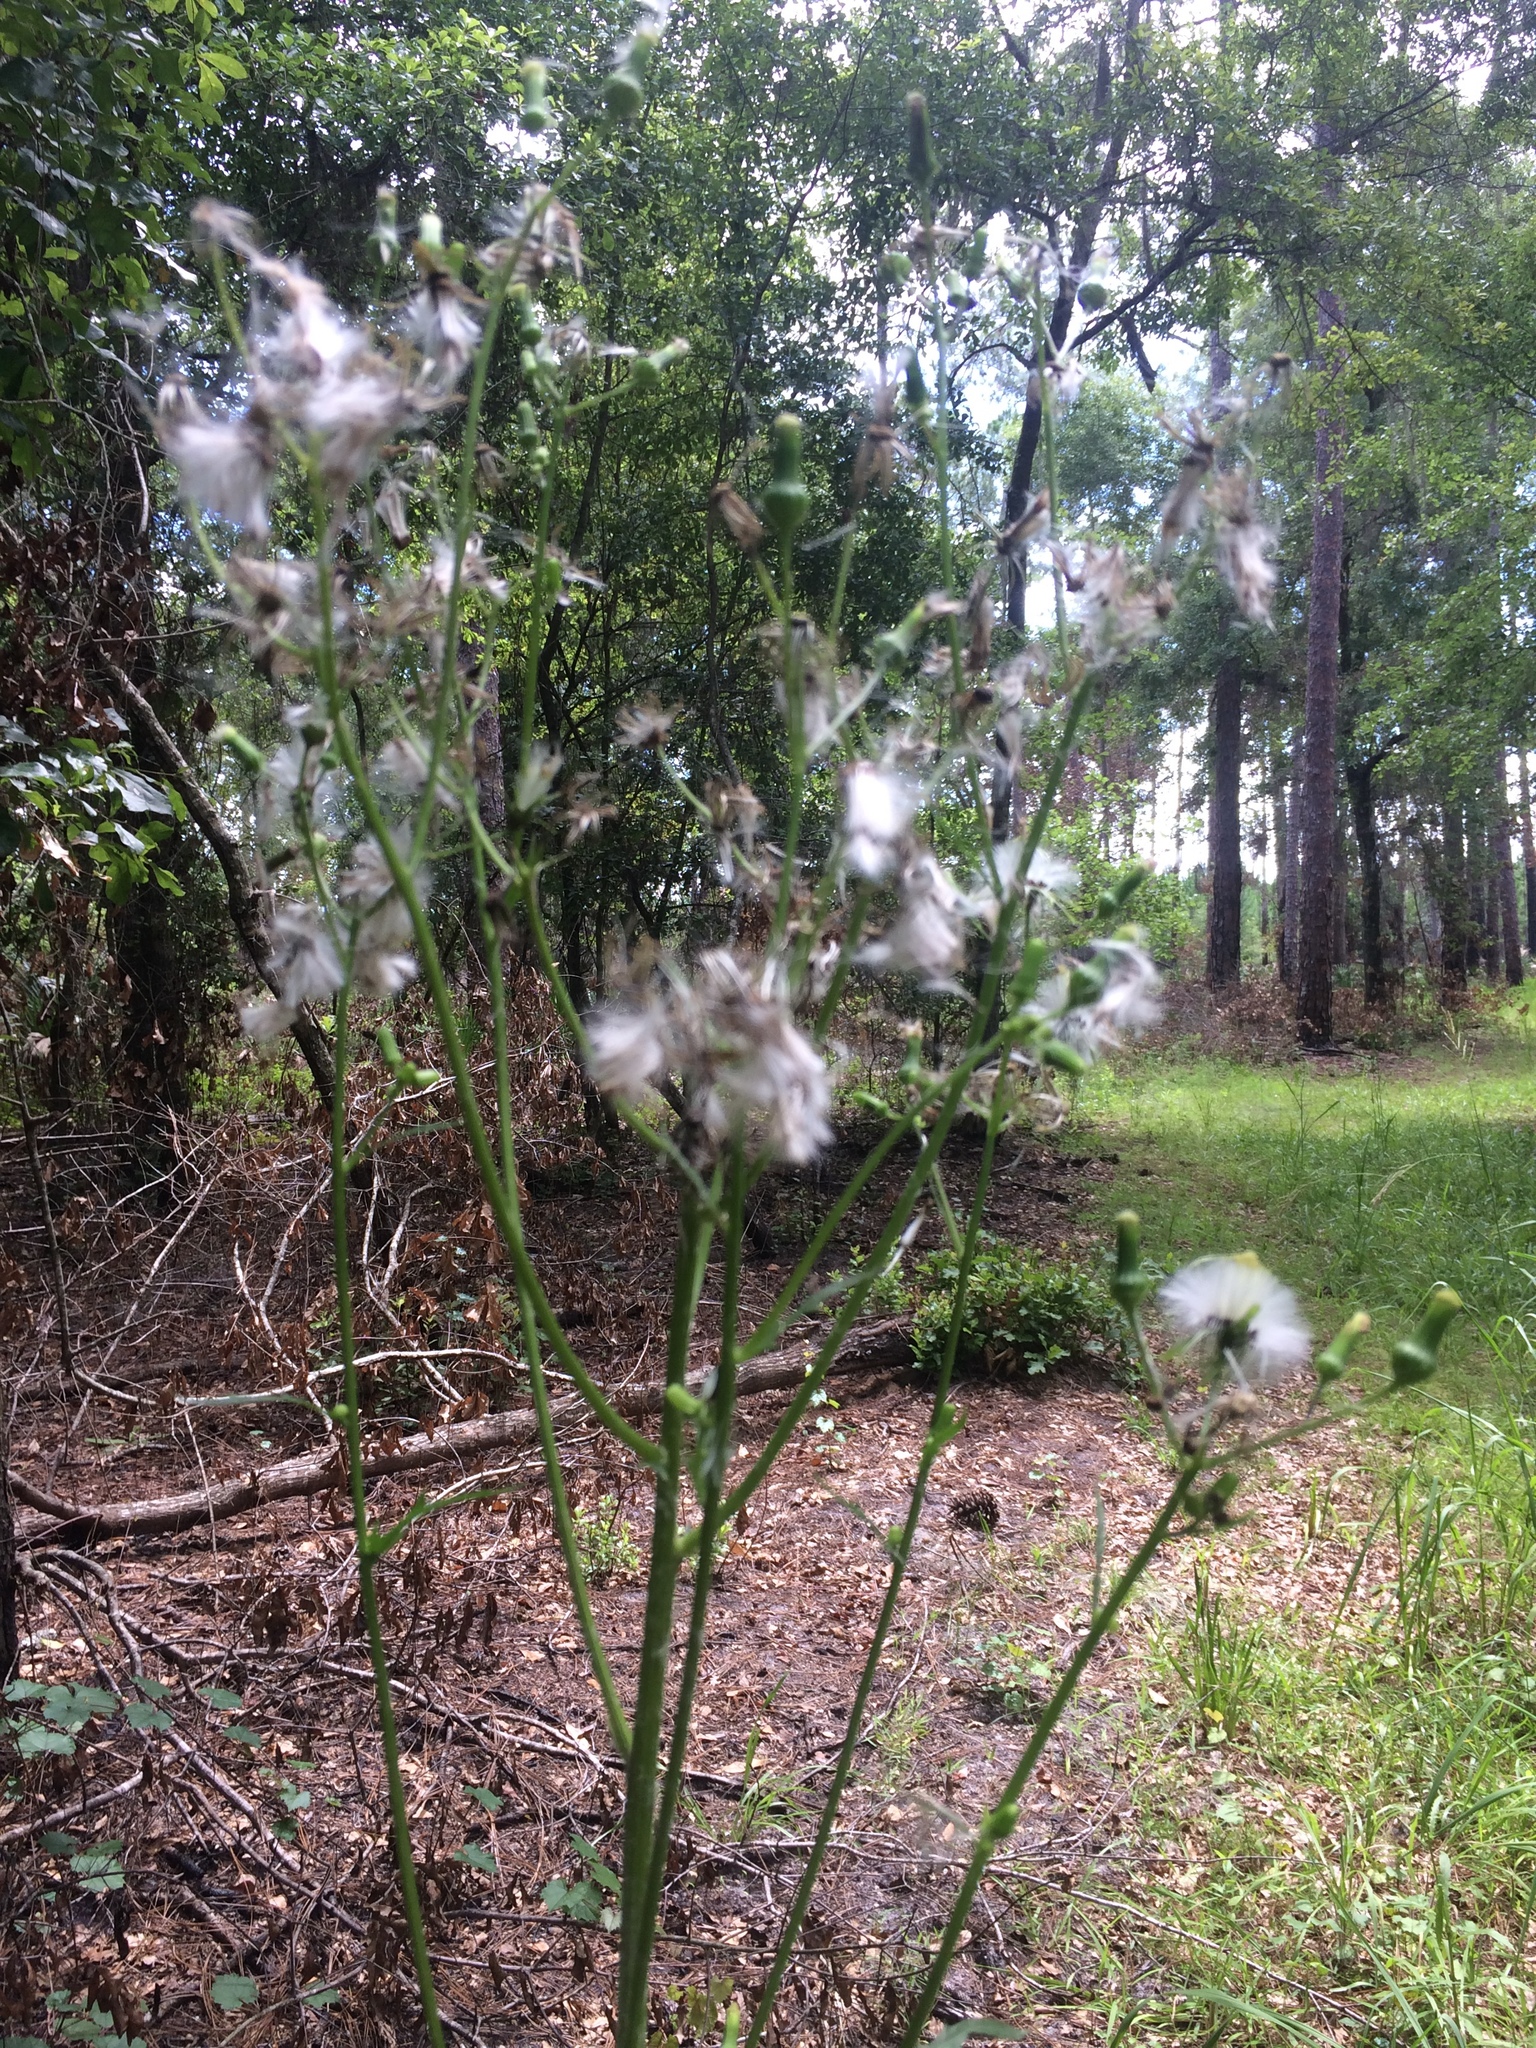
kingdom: Plantae
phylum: Tracheophyta
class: Magnoliopsida
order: Asterales
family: Asteraceae
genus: Erechtites
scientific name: Erechtites hieraciifolius
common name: American burnweed
